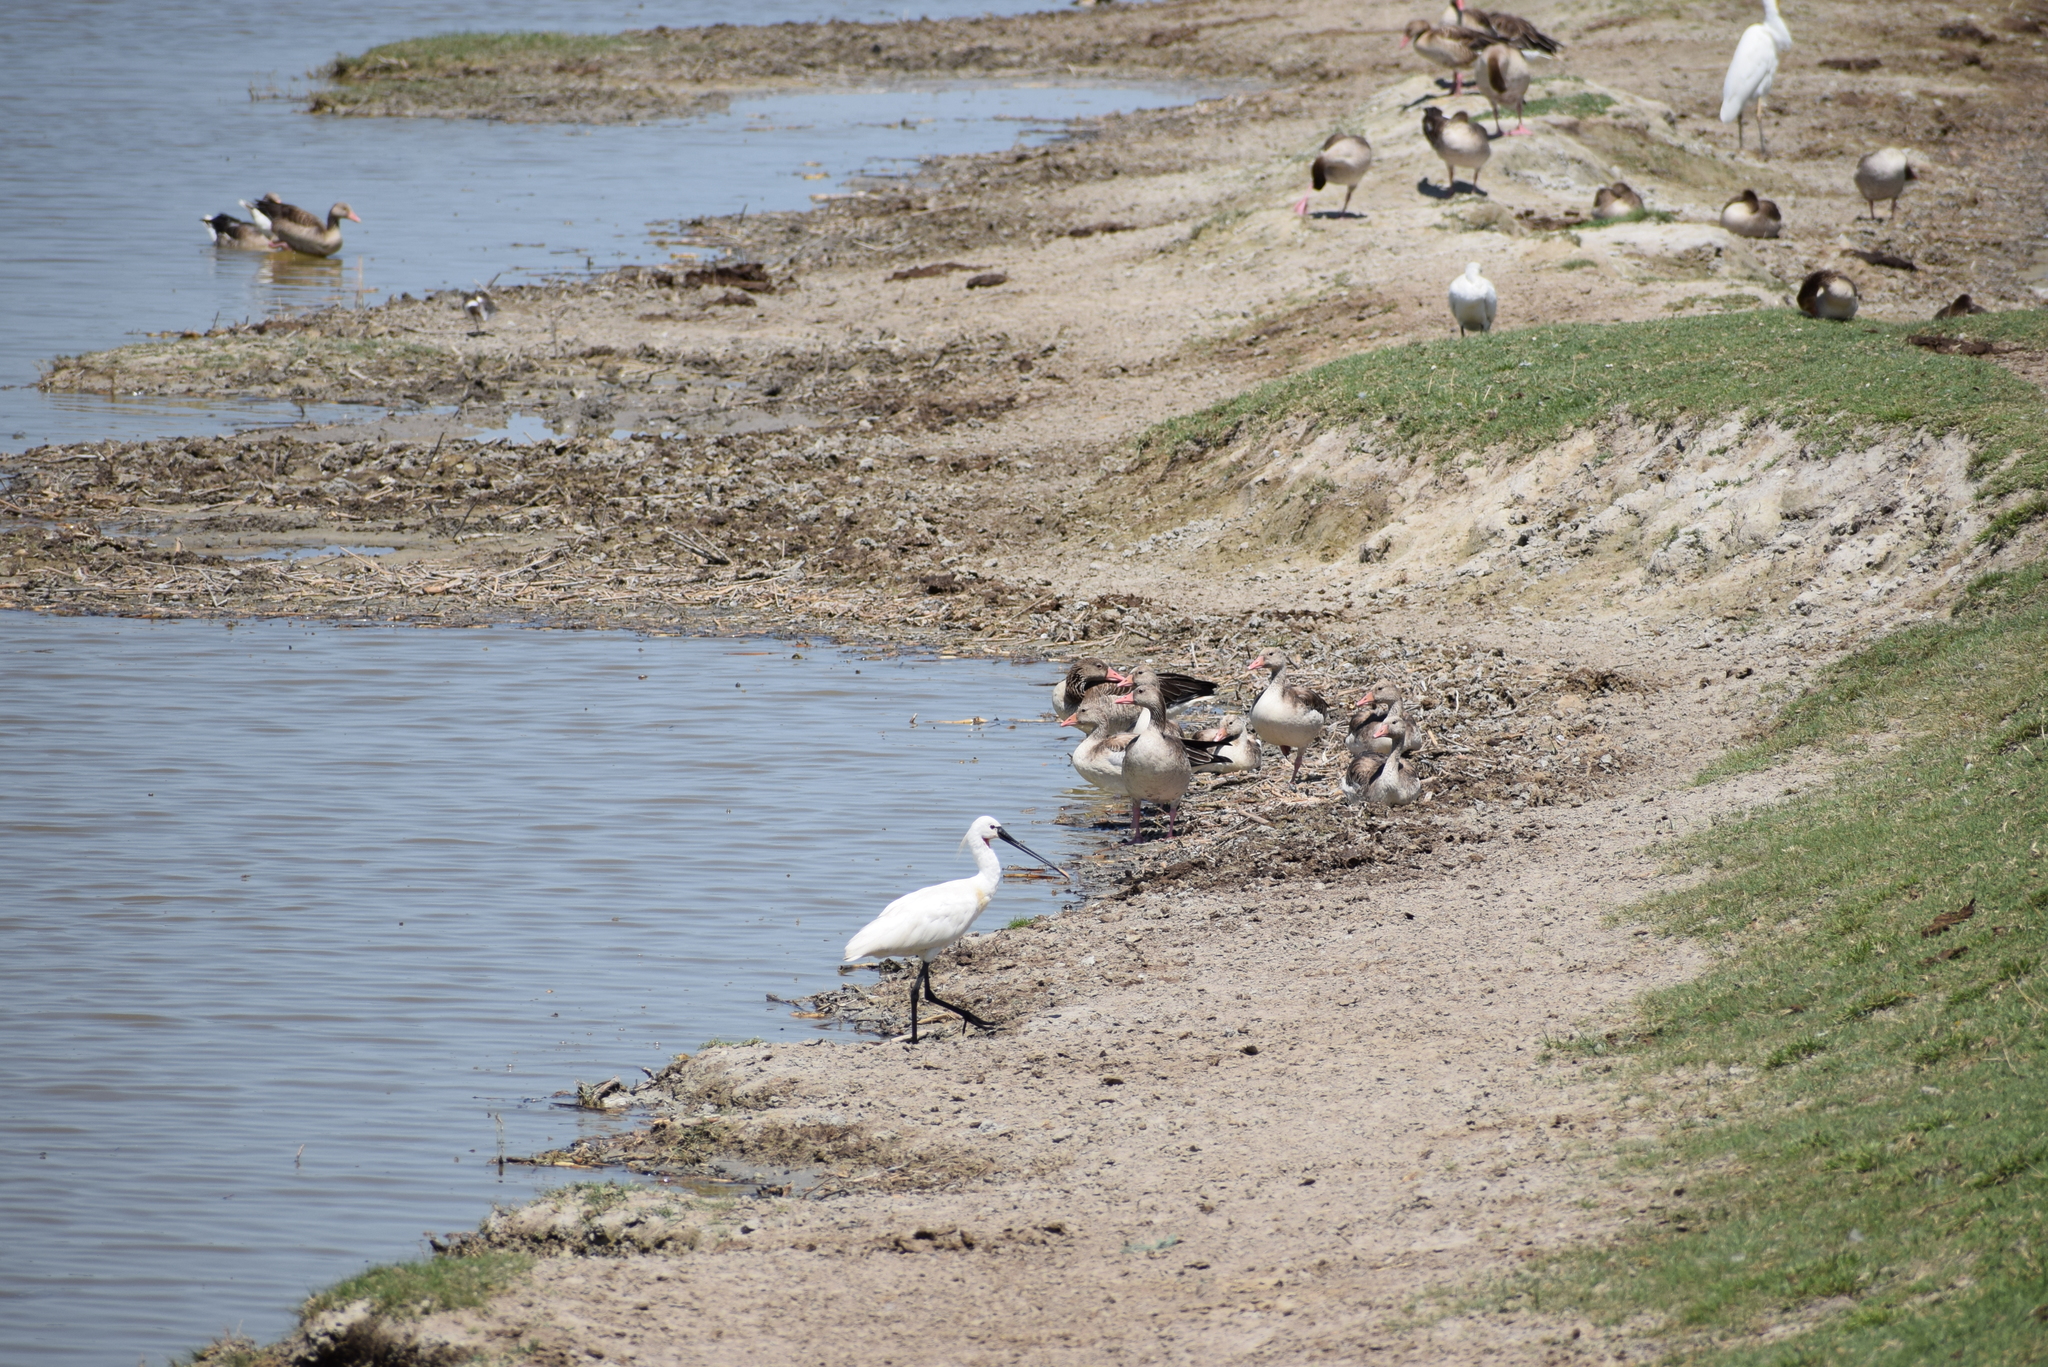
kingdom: Animalia
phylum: Chordata
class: Aves
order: Pelecaniformes
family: Threskiornithidae
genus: Platalea
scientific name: Platalea leucorodia
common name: Eurasian spoonbill
